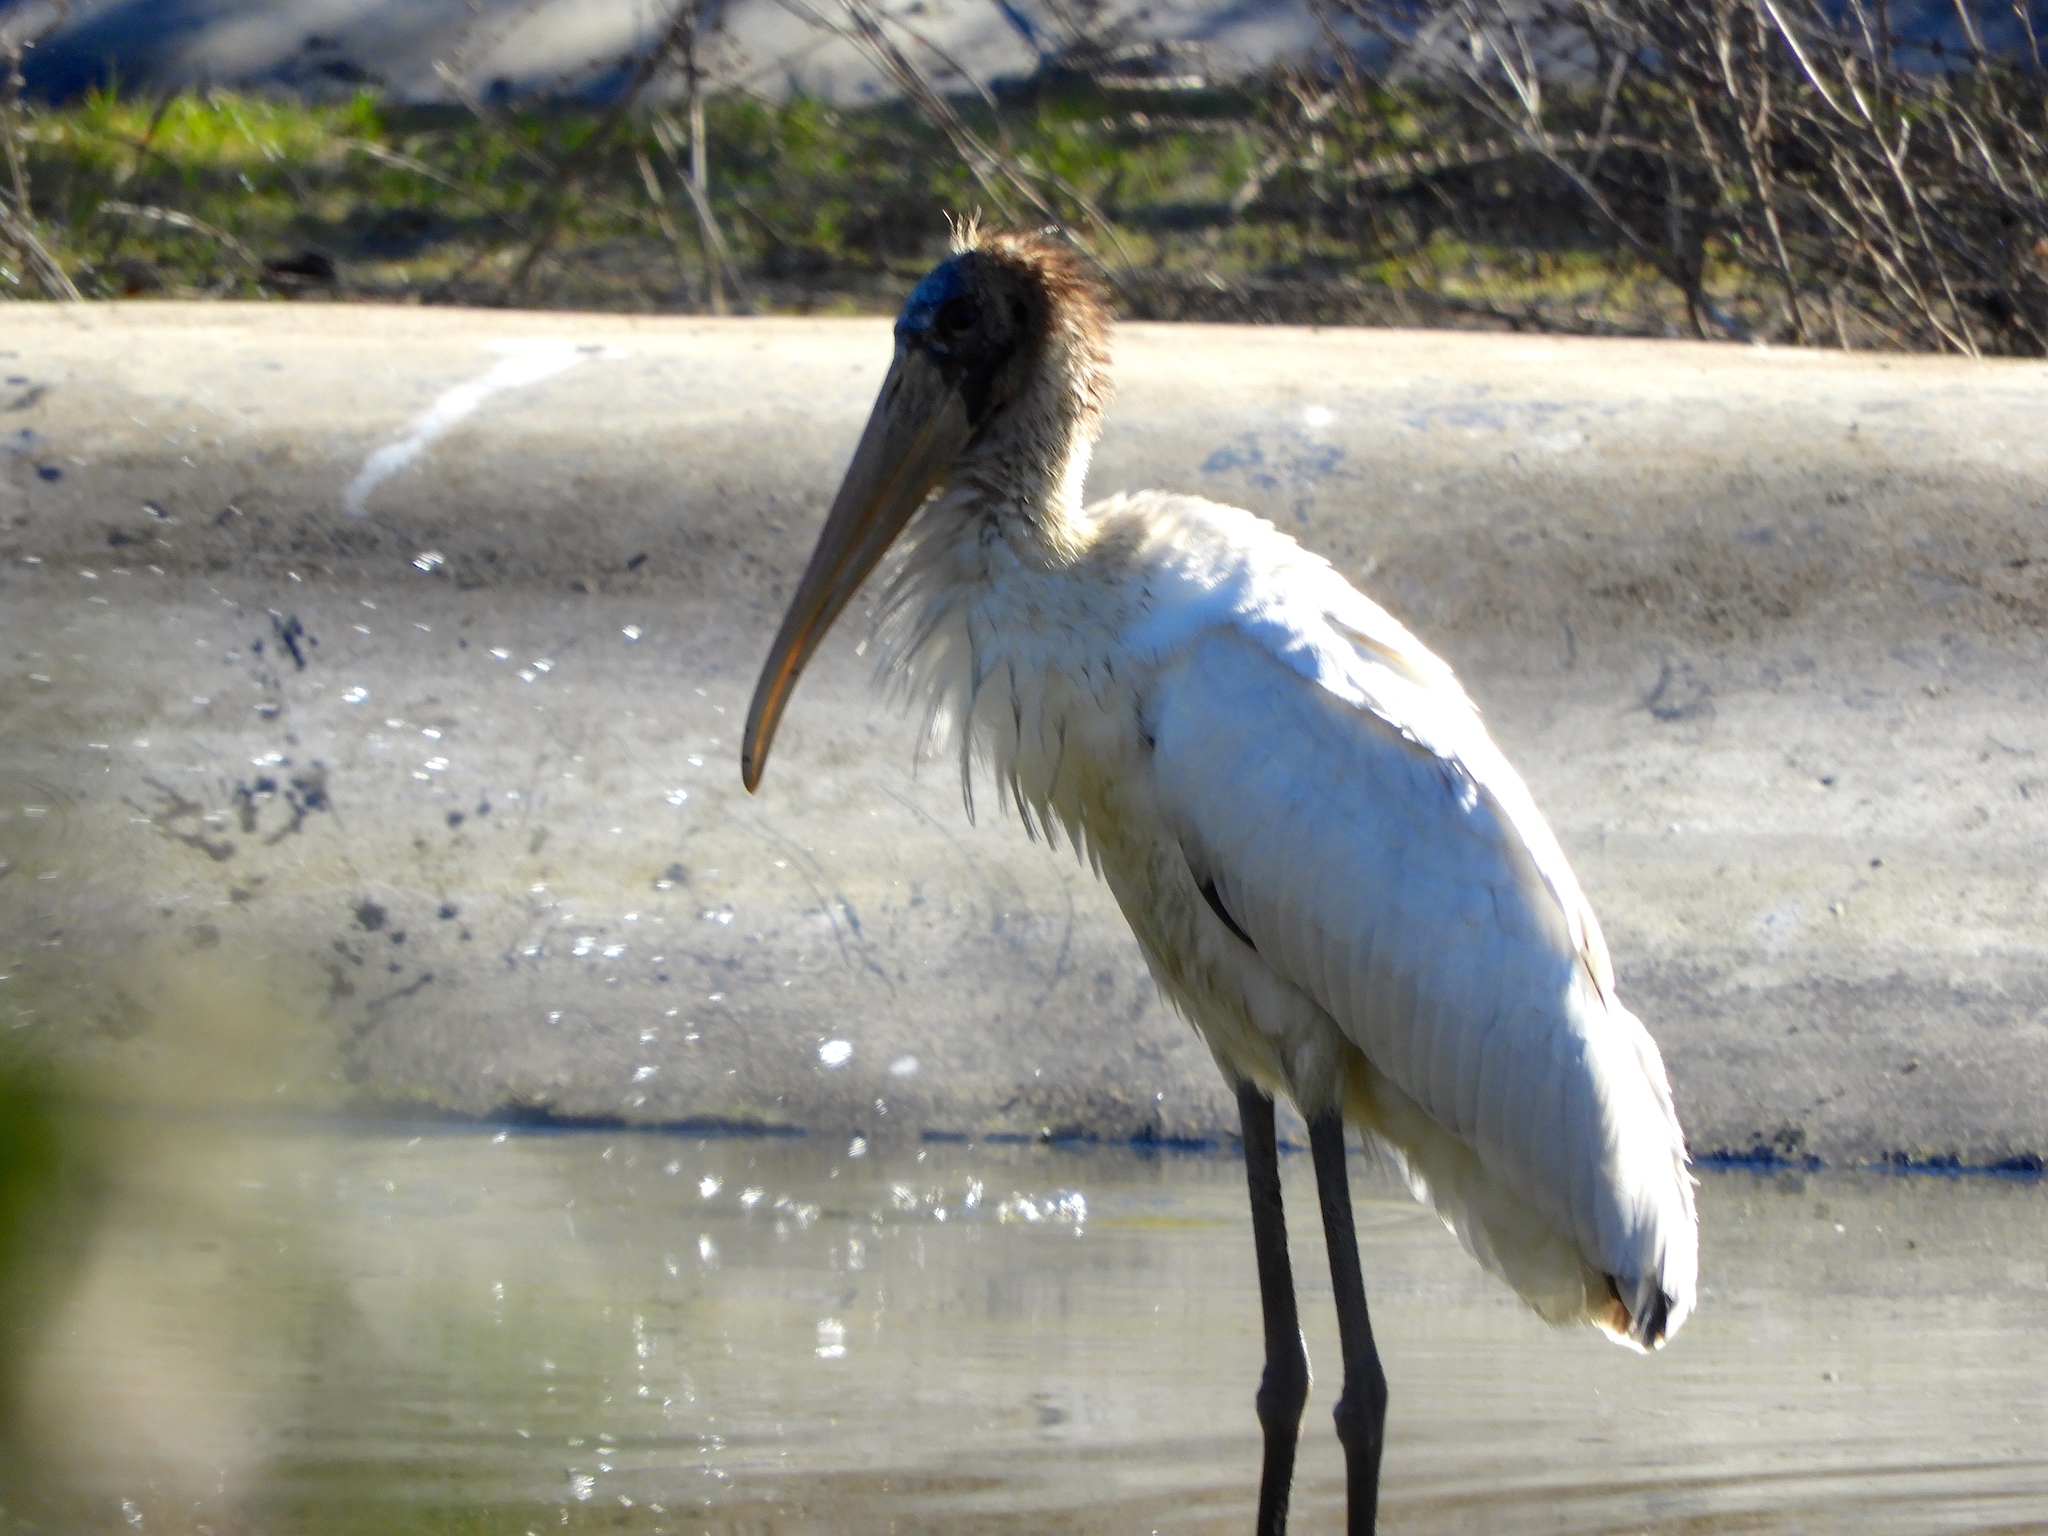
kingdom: Animalia
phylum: Chordata
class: Aves
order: Ciconiiformes
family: Ciconiidae
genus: Mycteria
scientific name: Mycteria americana
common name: Wood stork
